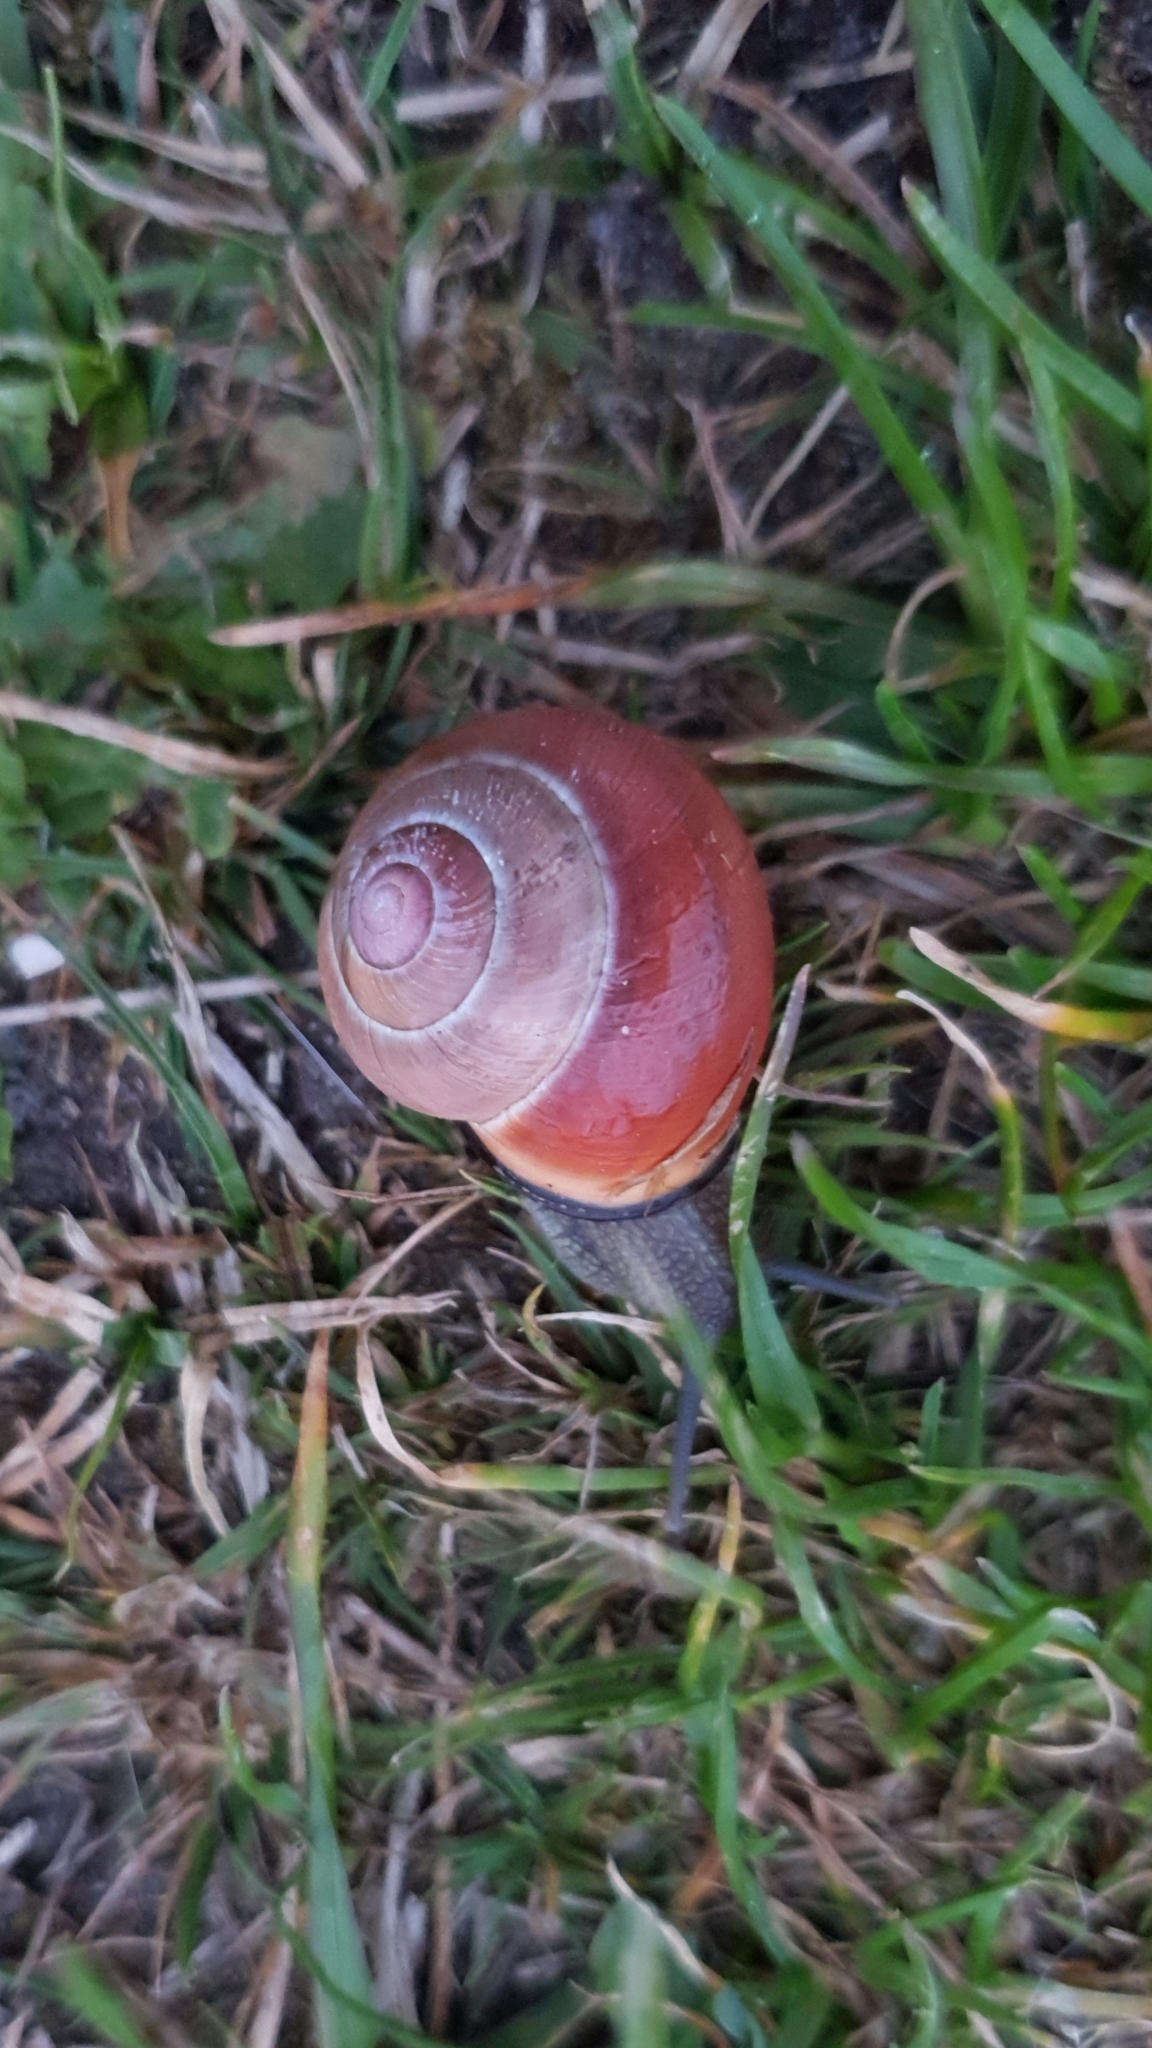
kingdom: Animalia
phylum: Mollusca
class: Gastropoda
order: Stylommatophora
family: Helicidae
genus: Cepaea
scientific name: Cepaea nemoralis
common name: Grovesnail
